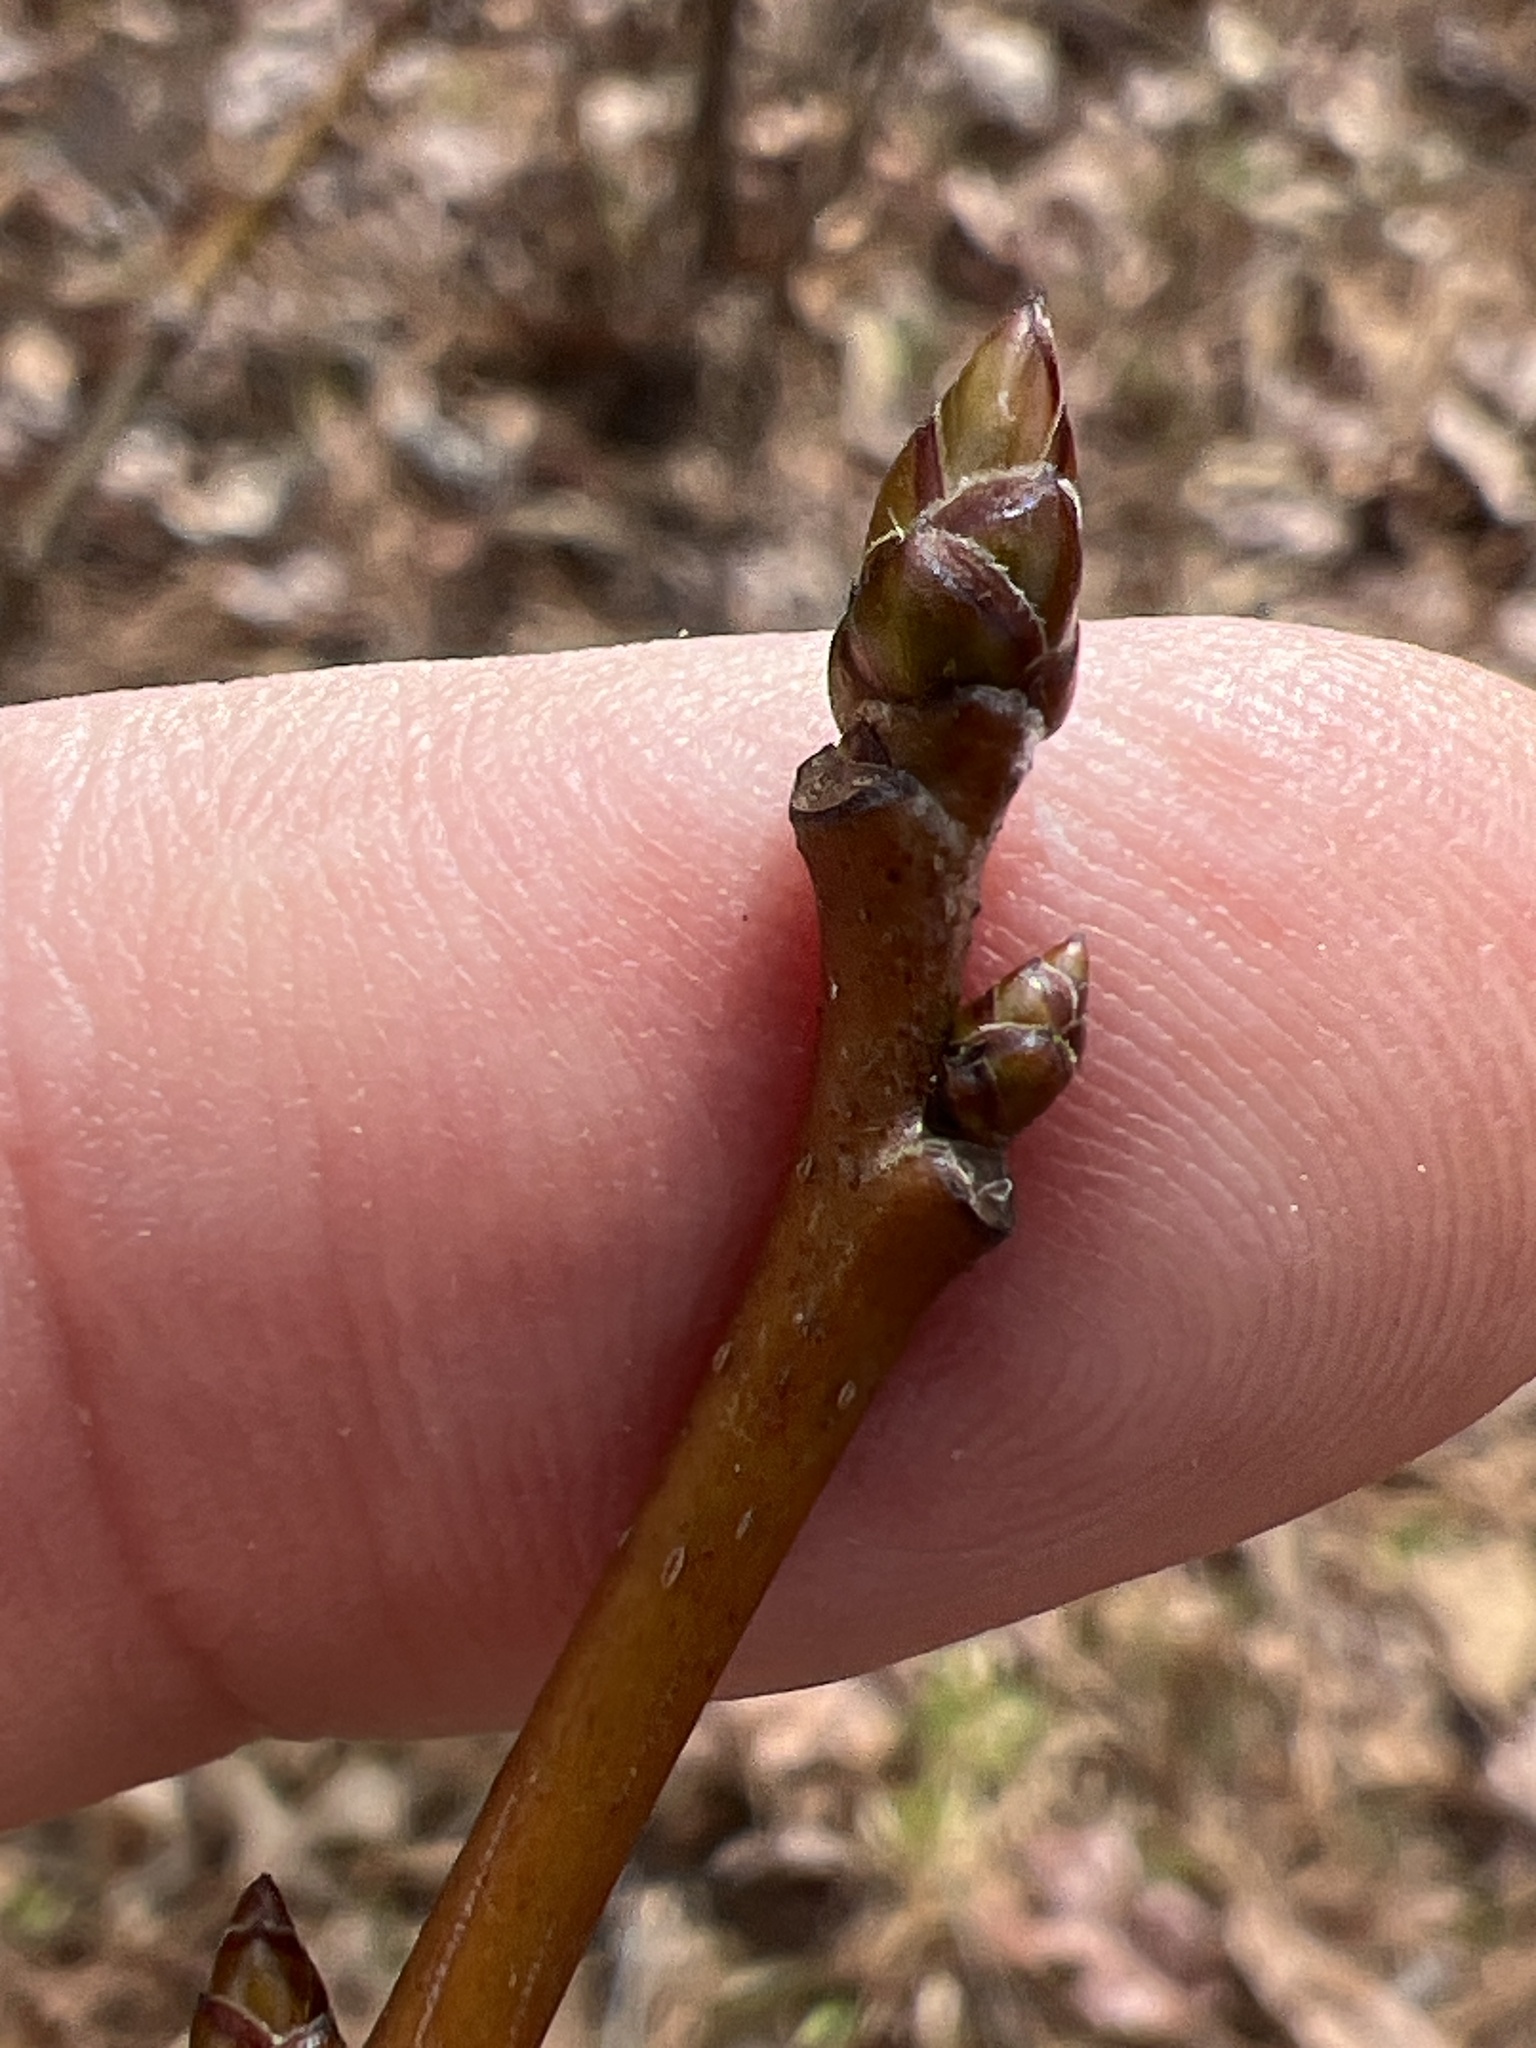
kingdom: Plantae
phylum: Tracheophyta
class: Magnoliopsida
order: Saxifragales
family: Altingiaceae
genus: Liquidambar
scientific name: Liquidambar styraciflua
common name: Sweet gum
